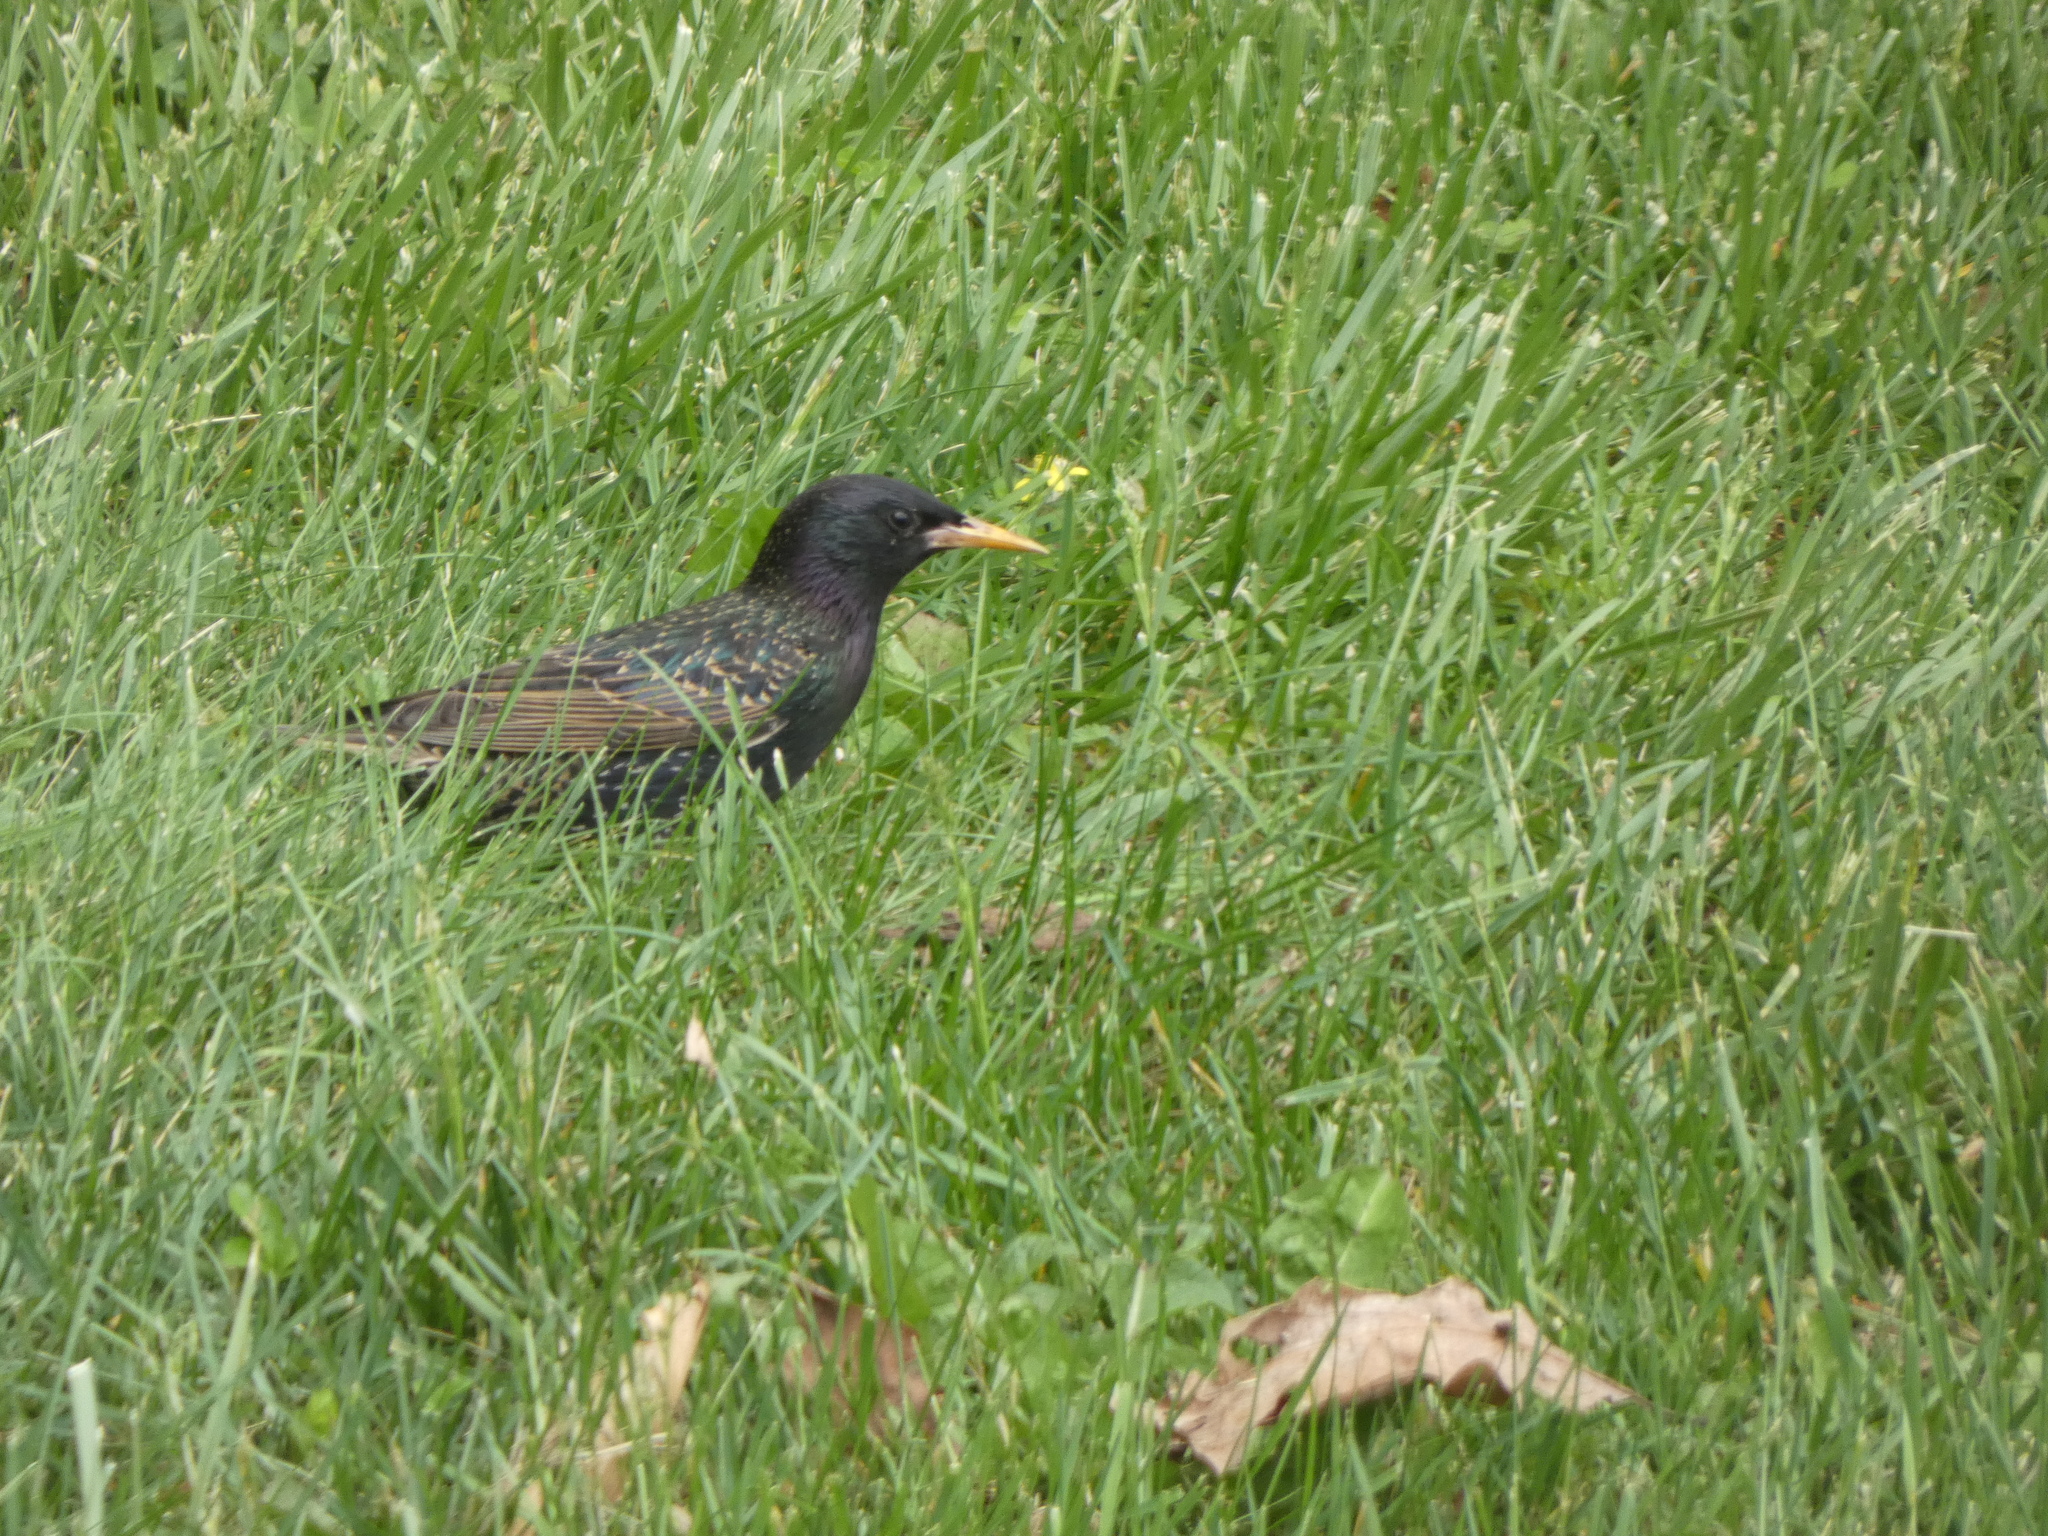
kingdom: Animalia
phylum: Chordata
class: Aves
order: Passeriformes
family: Sturnidae
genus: Sturnus
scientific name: Sturnus vulgaris
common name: Common starling
